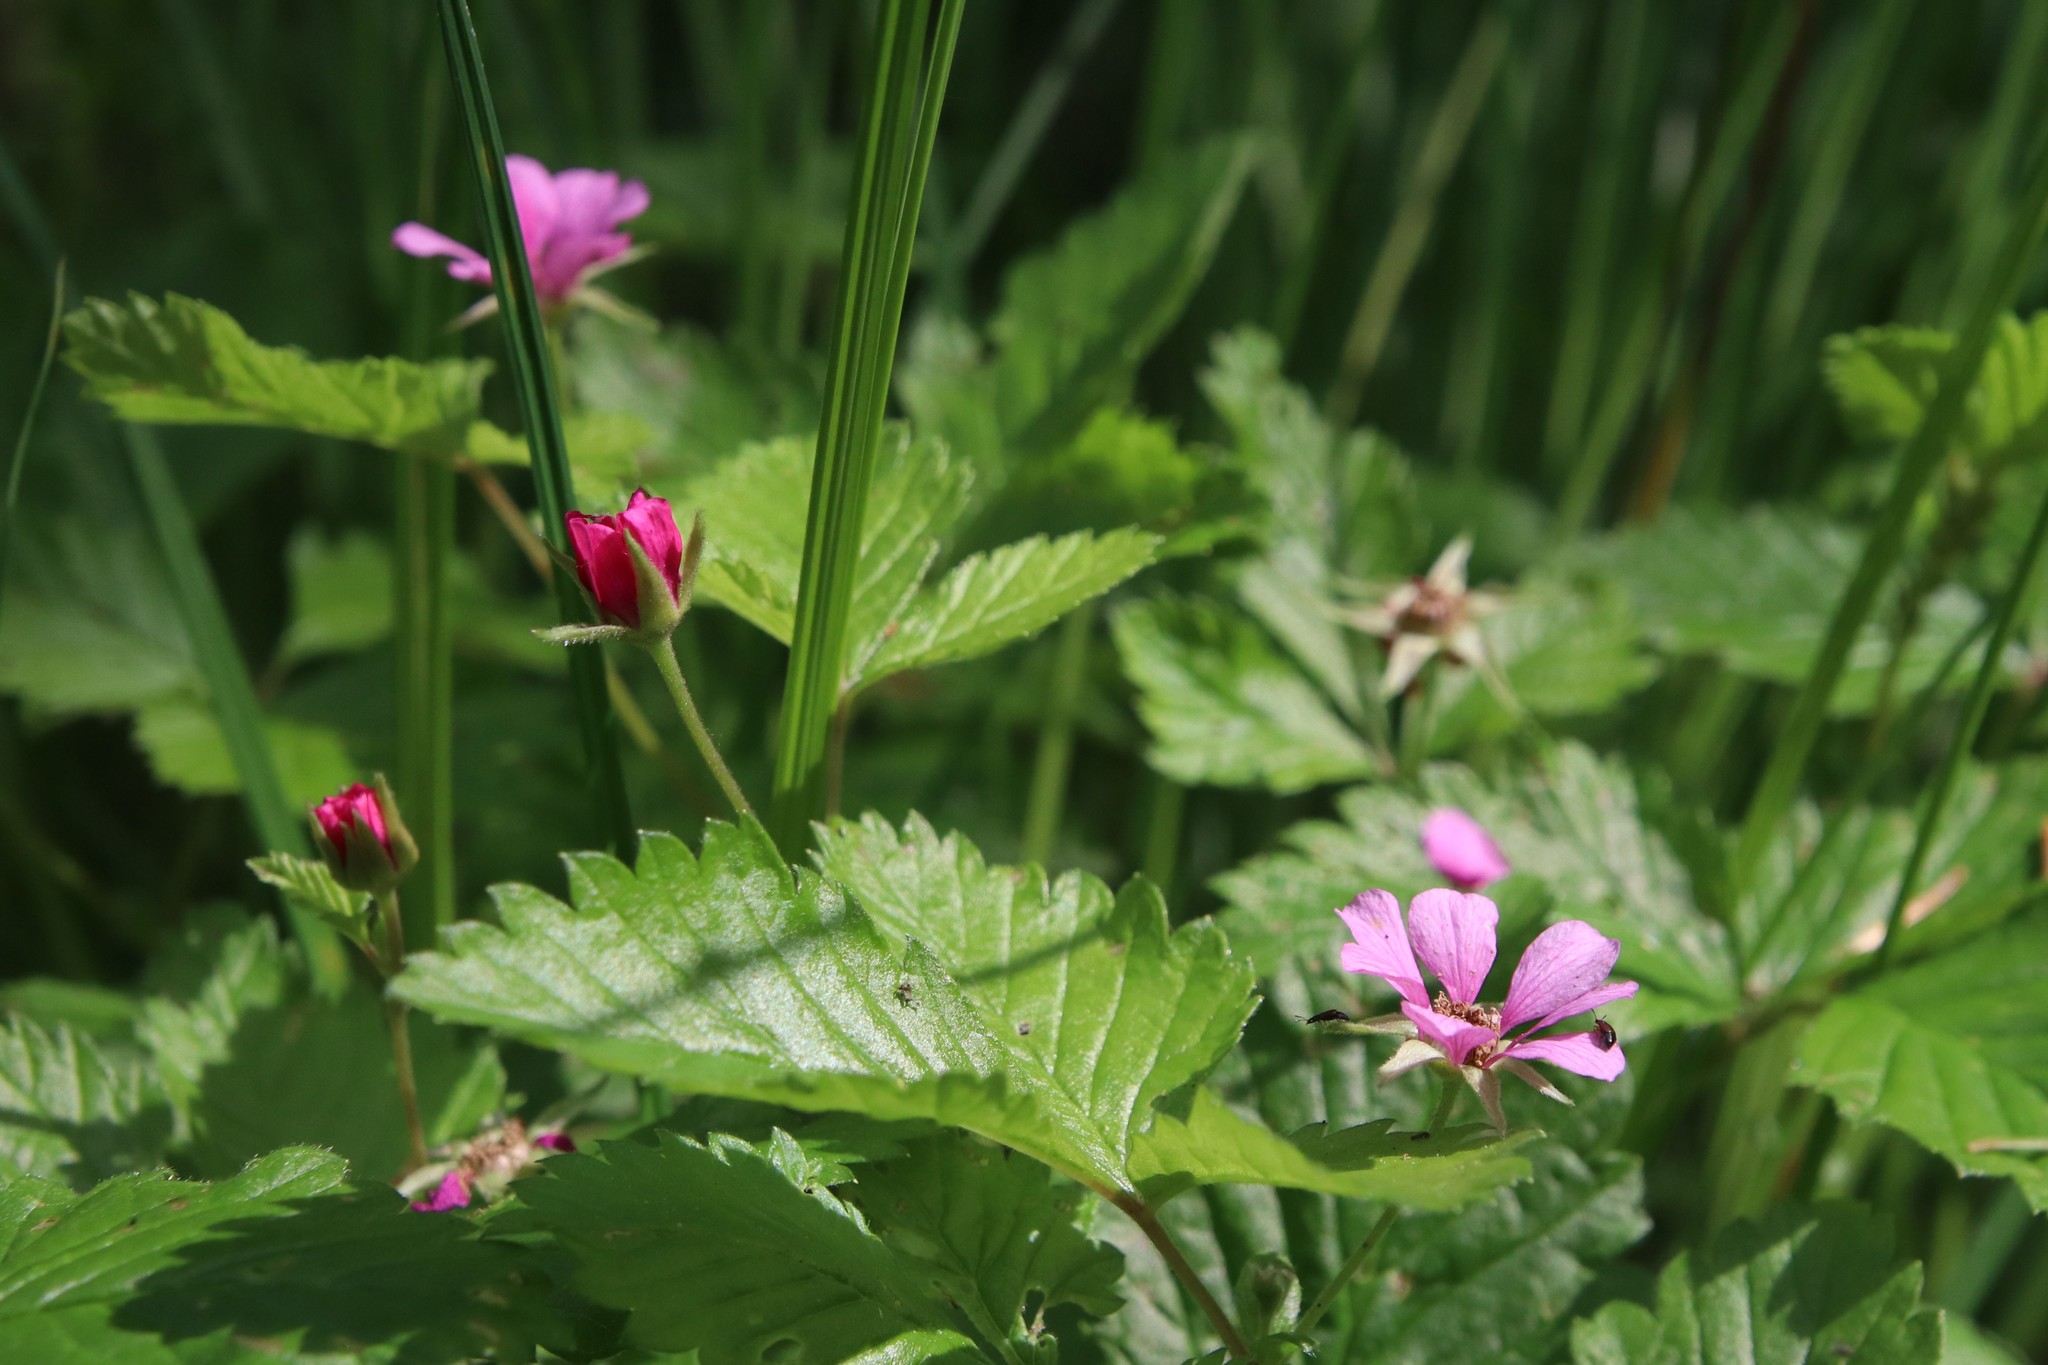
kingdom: Plantae
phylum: Tracheophyta
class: Magnoliopsida
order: Rosales
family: Rosaceae
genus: Rubus
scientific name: Rubus arcticus
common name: Arctic bramble
